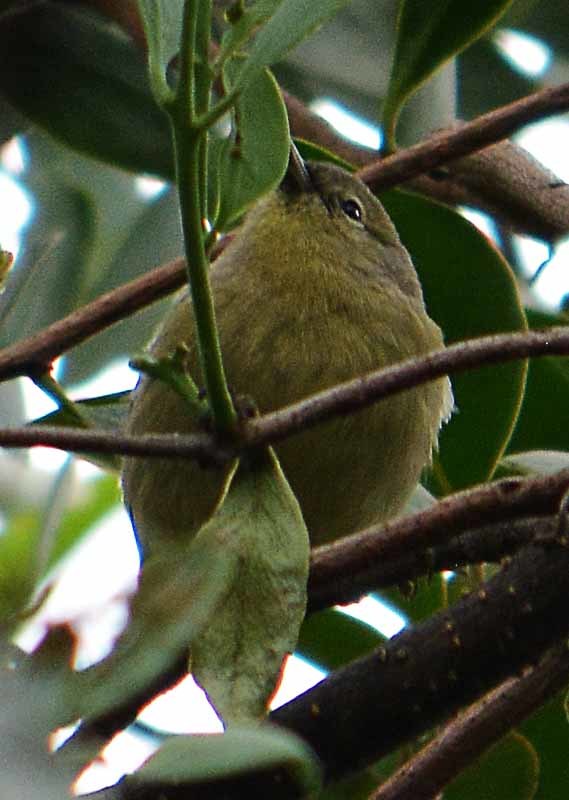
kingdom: Animalia
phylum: Chordata
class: Aves
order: Passeriformes
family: Parulidae
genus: Leiothlypis
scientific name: Leiothlypis celata
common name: Orange-crowned warbler
